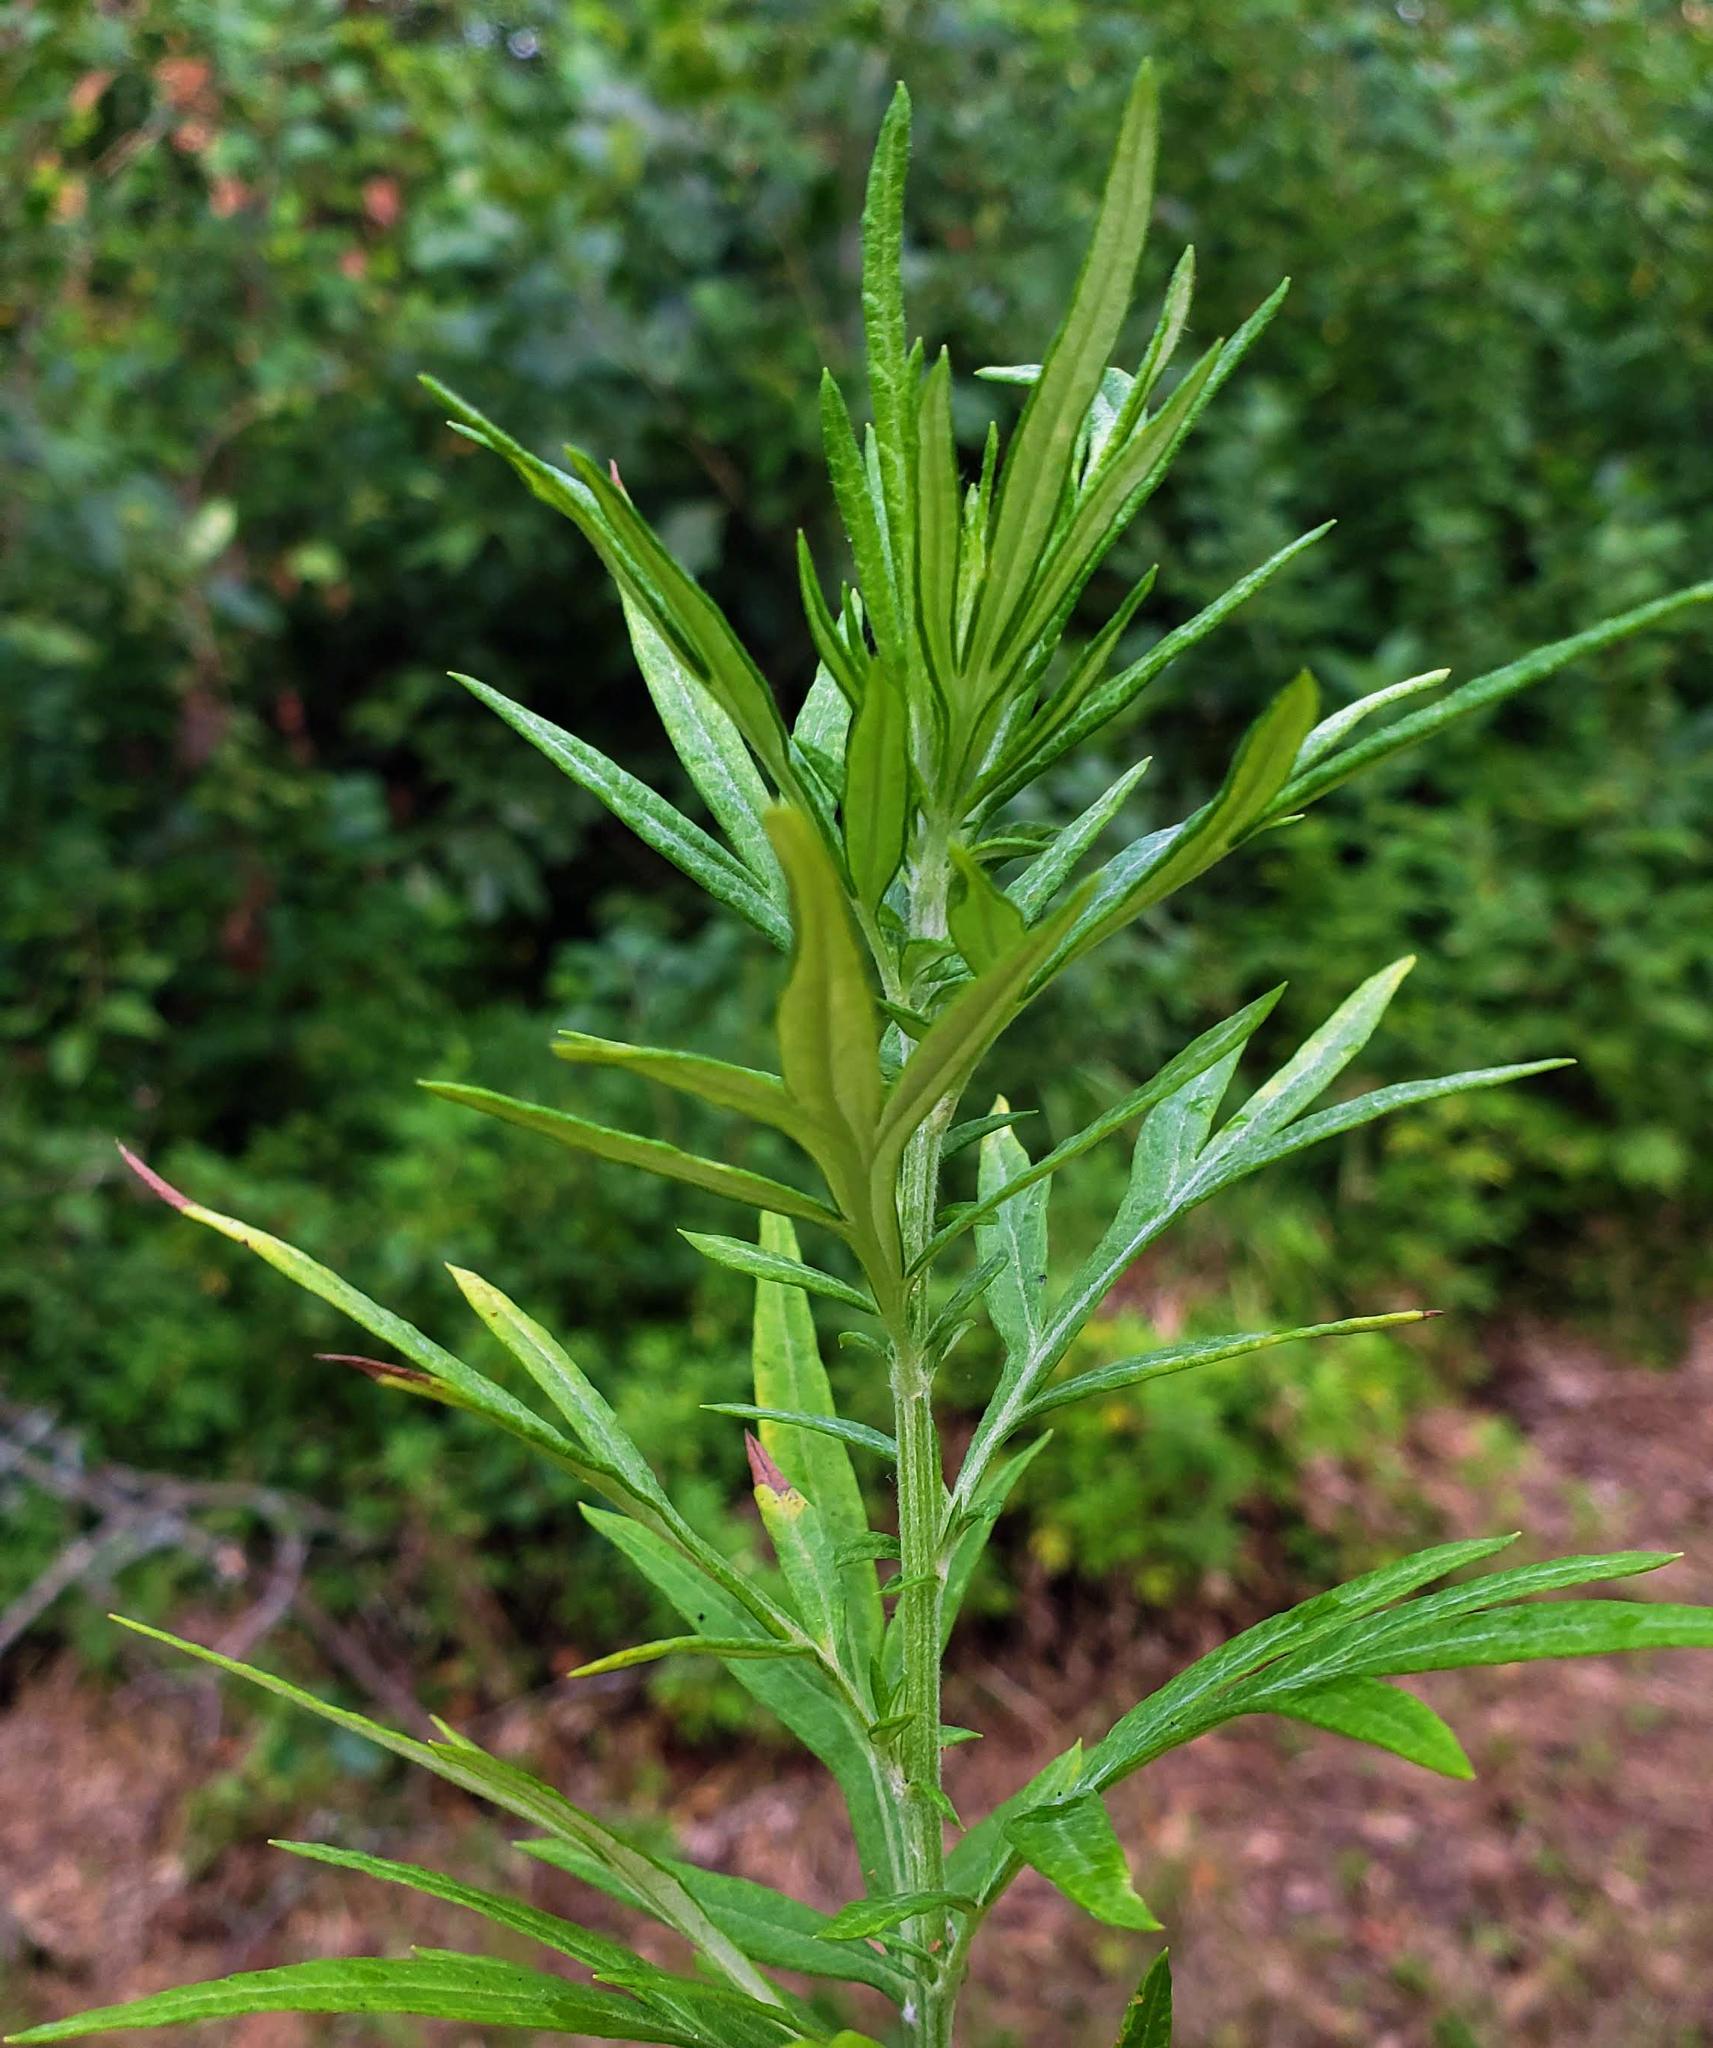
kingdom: Plantae
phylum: Tracheophyta
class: Magnoliopsida
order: Asterales
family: Asteraceae
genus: Artemisia
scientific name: Artemisia vulgaris
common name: Mugwort
